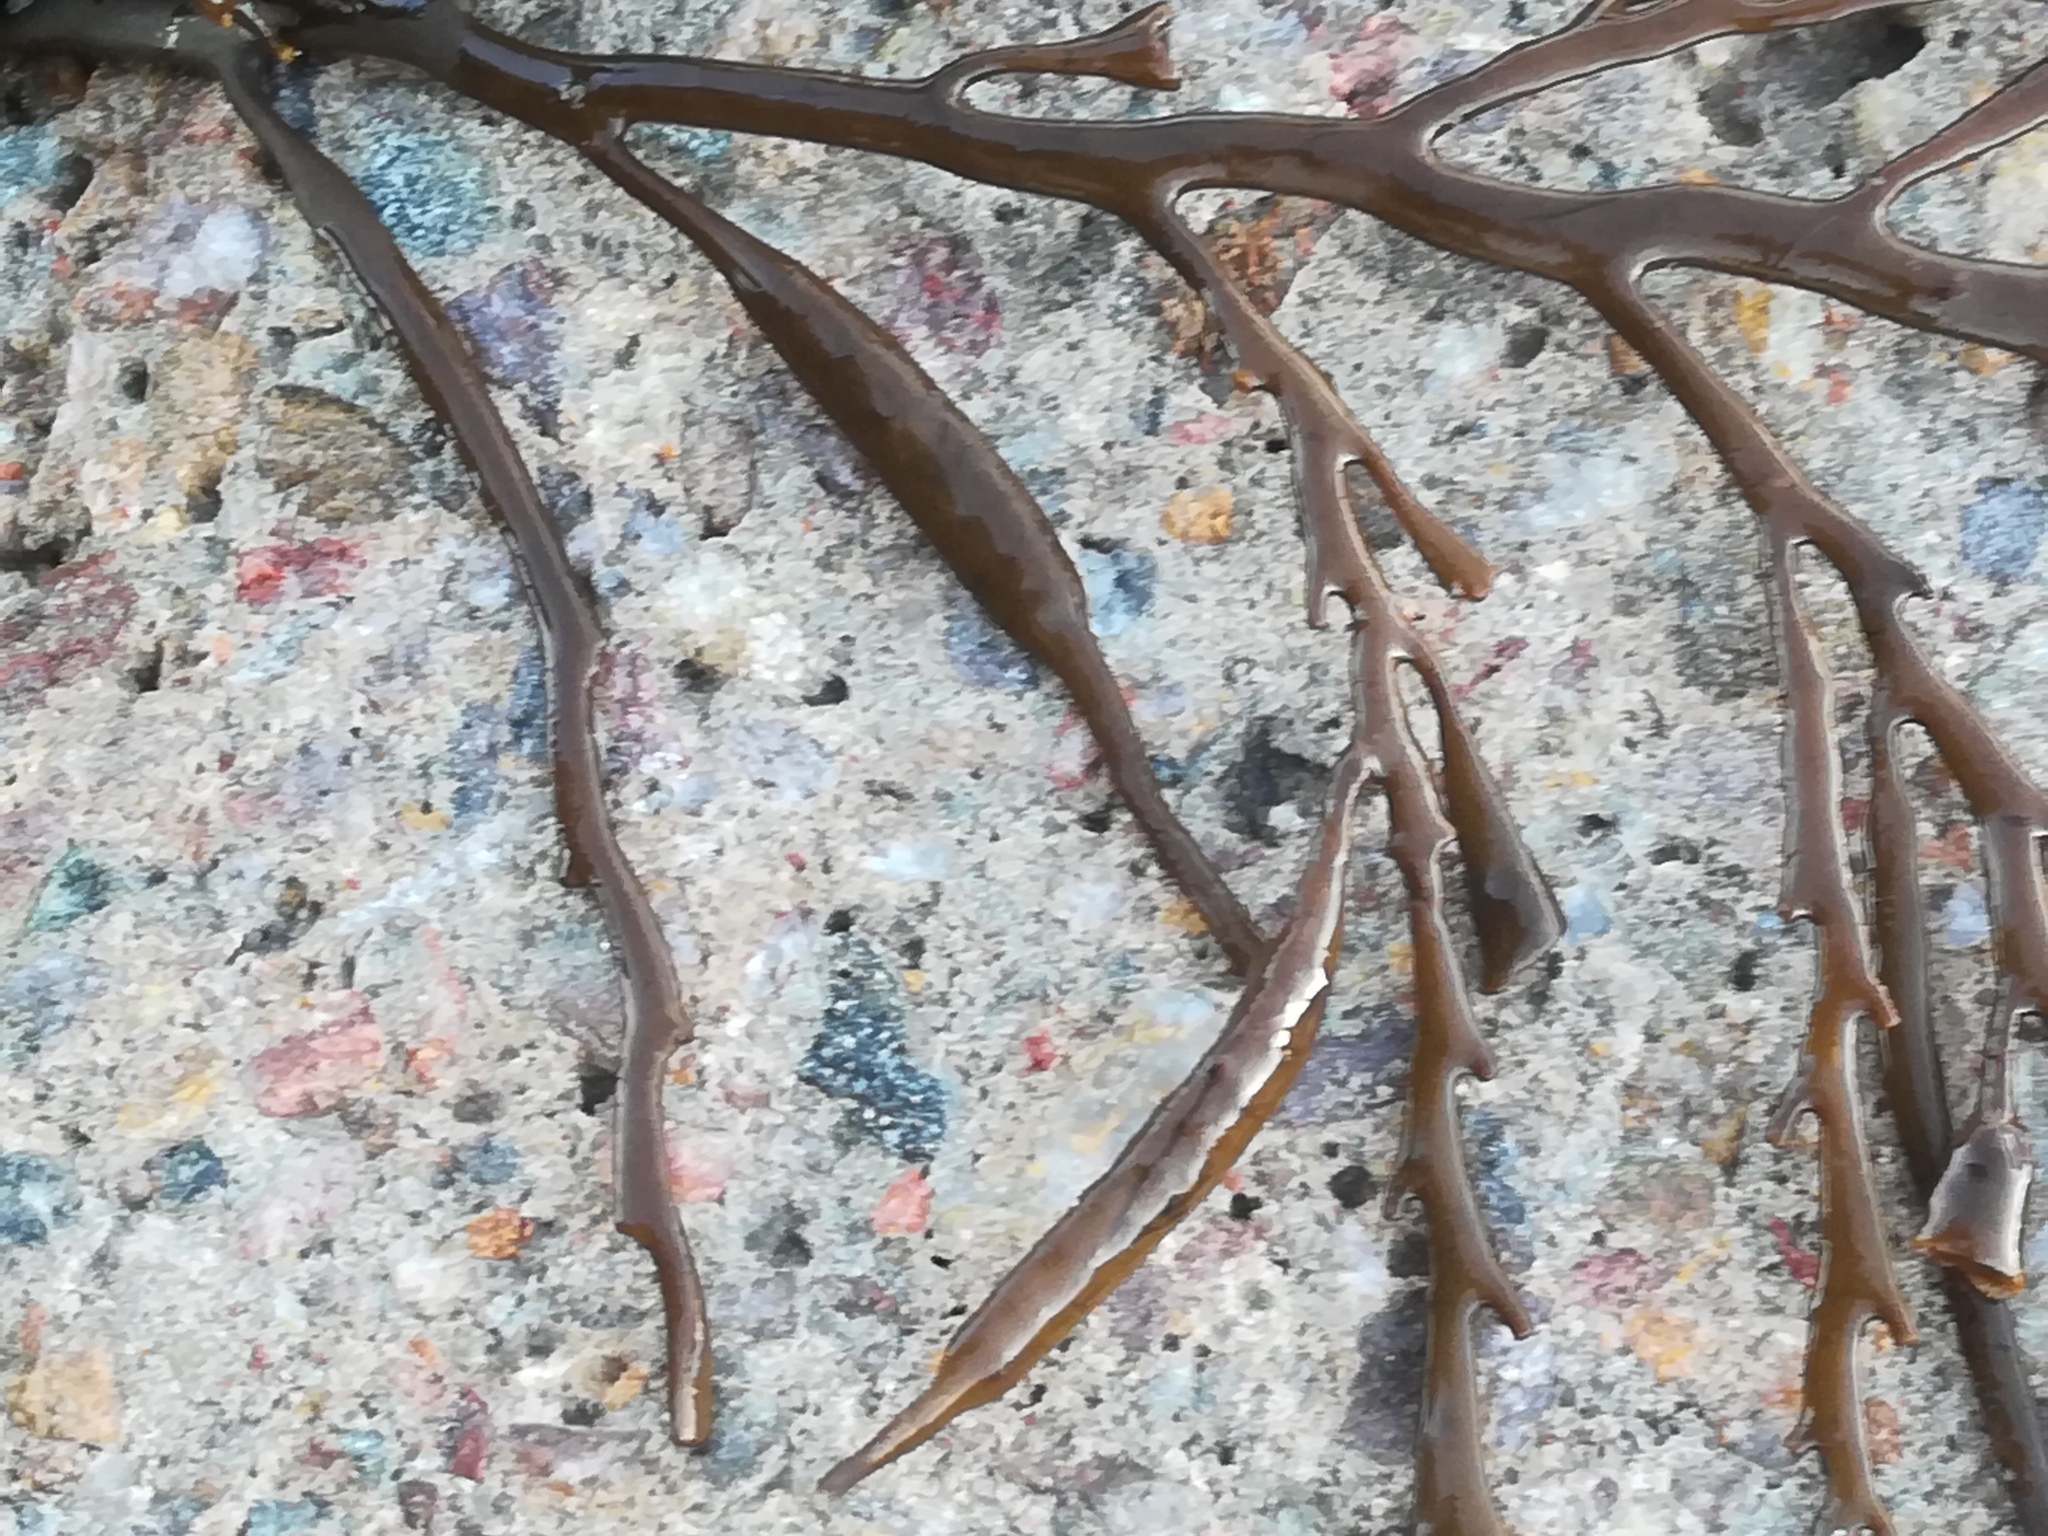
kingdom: Chromista
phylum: Ochrophyta
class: Phaeophyceae
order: Fucales
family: Sargassaceae
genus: Halidrys
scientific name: Halidrys siliquosa
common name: Sea oak
